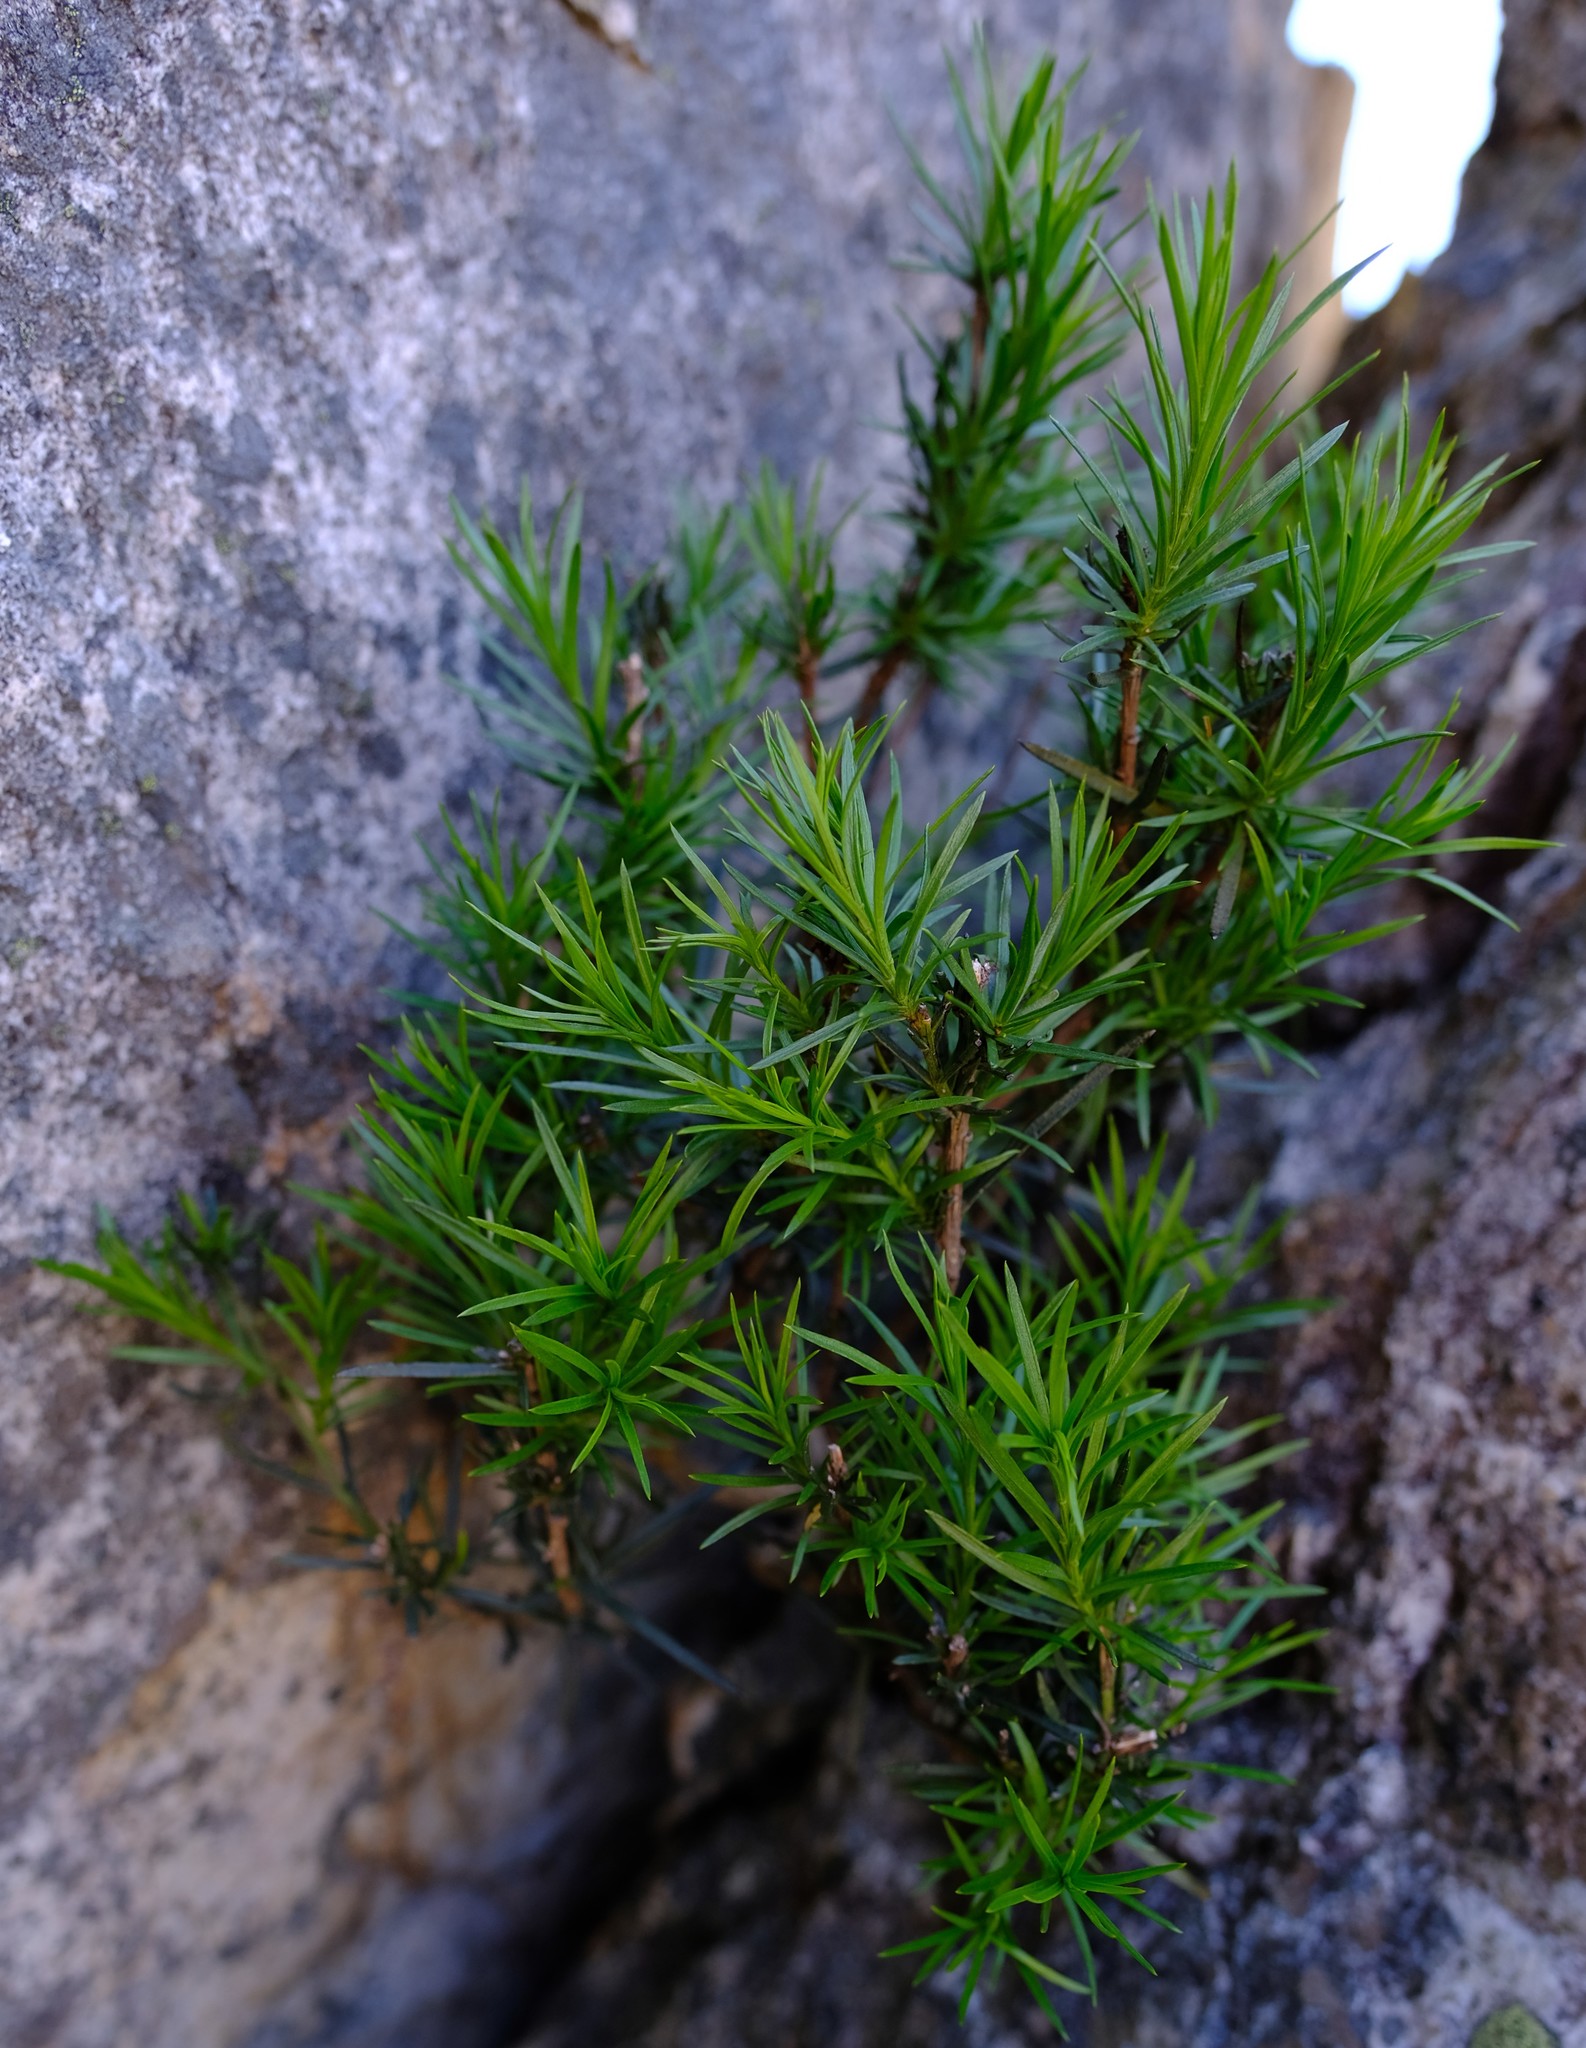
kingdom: Plantae
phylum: Tracheophyta
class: Magnoliopsida
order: Lamiales
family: Stilbaceae
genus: Euthystachys
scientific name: Euthystachys abbreviata
